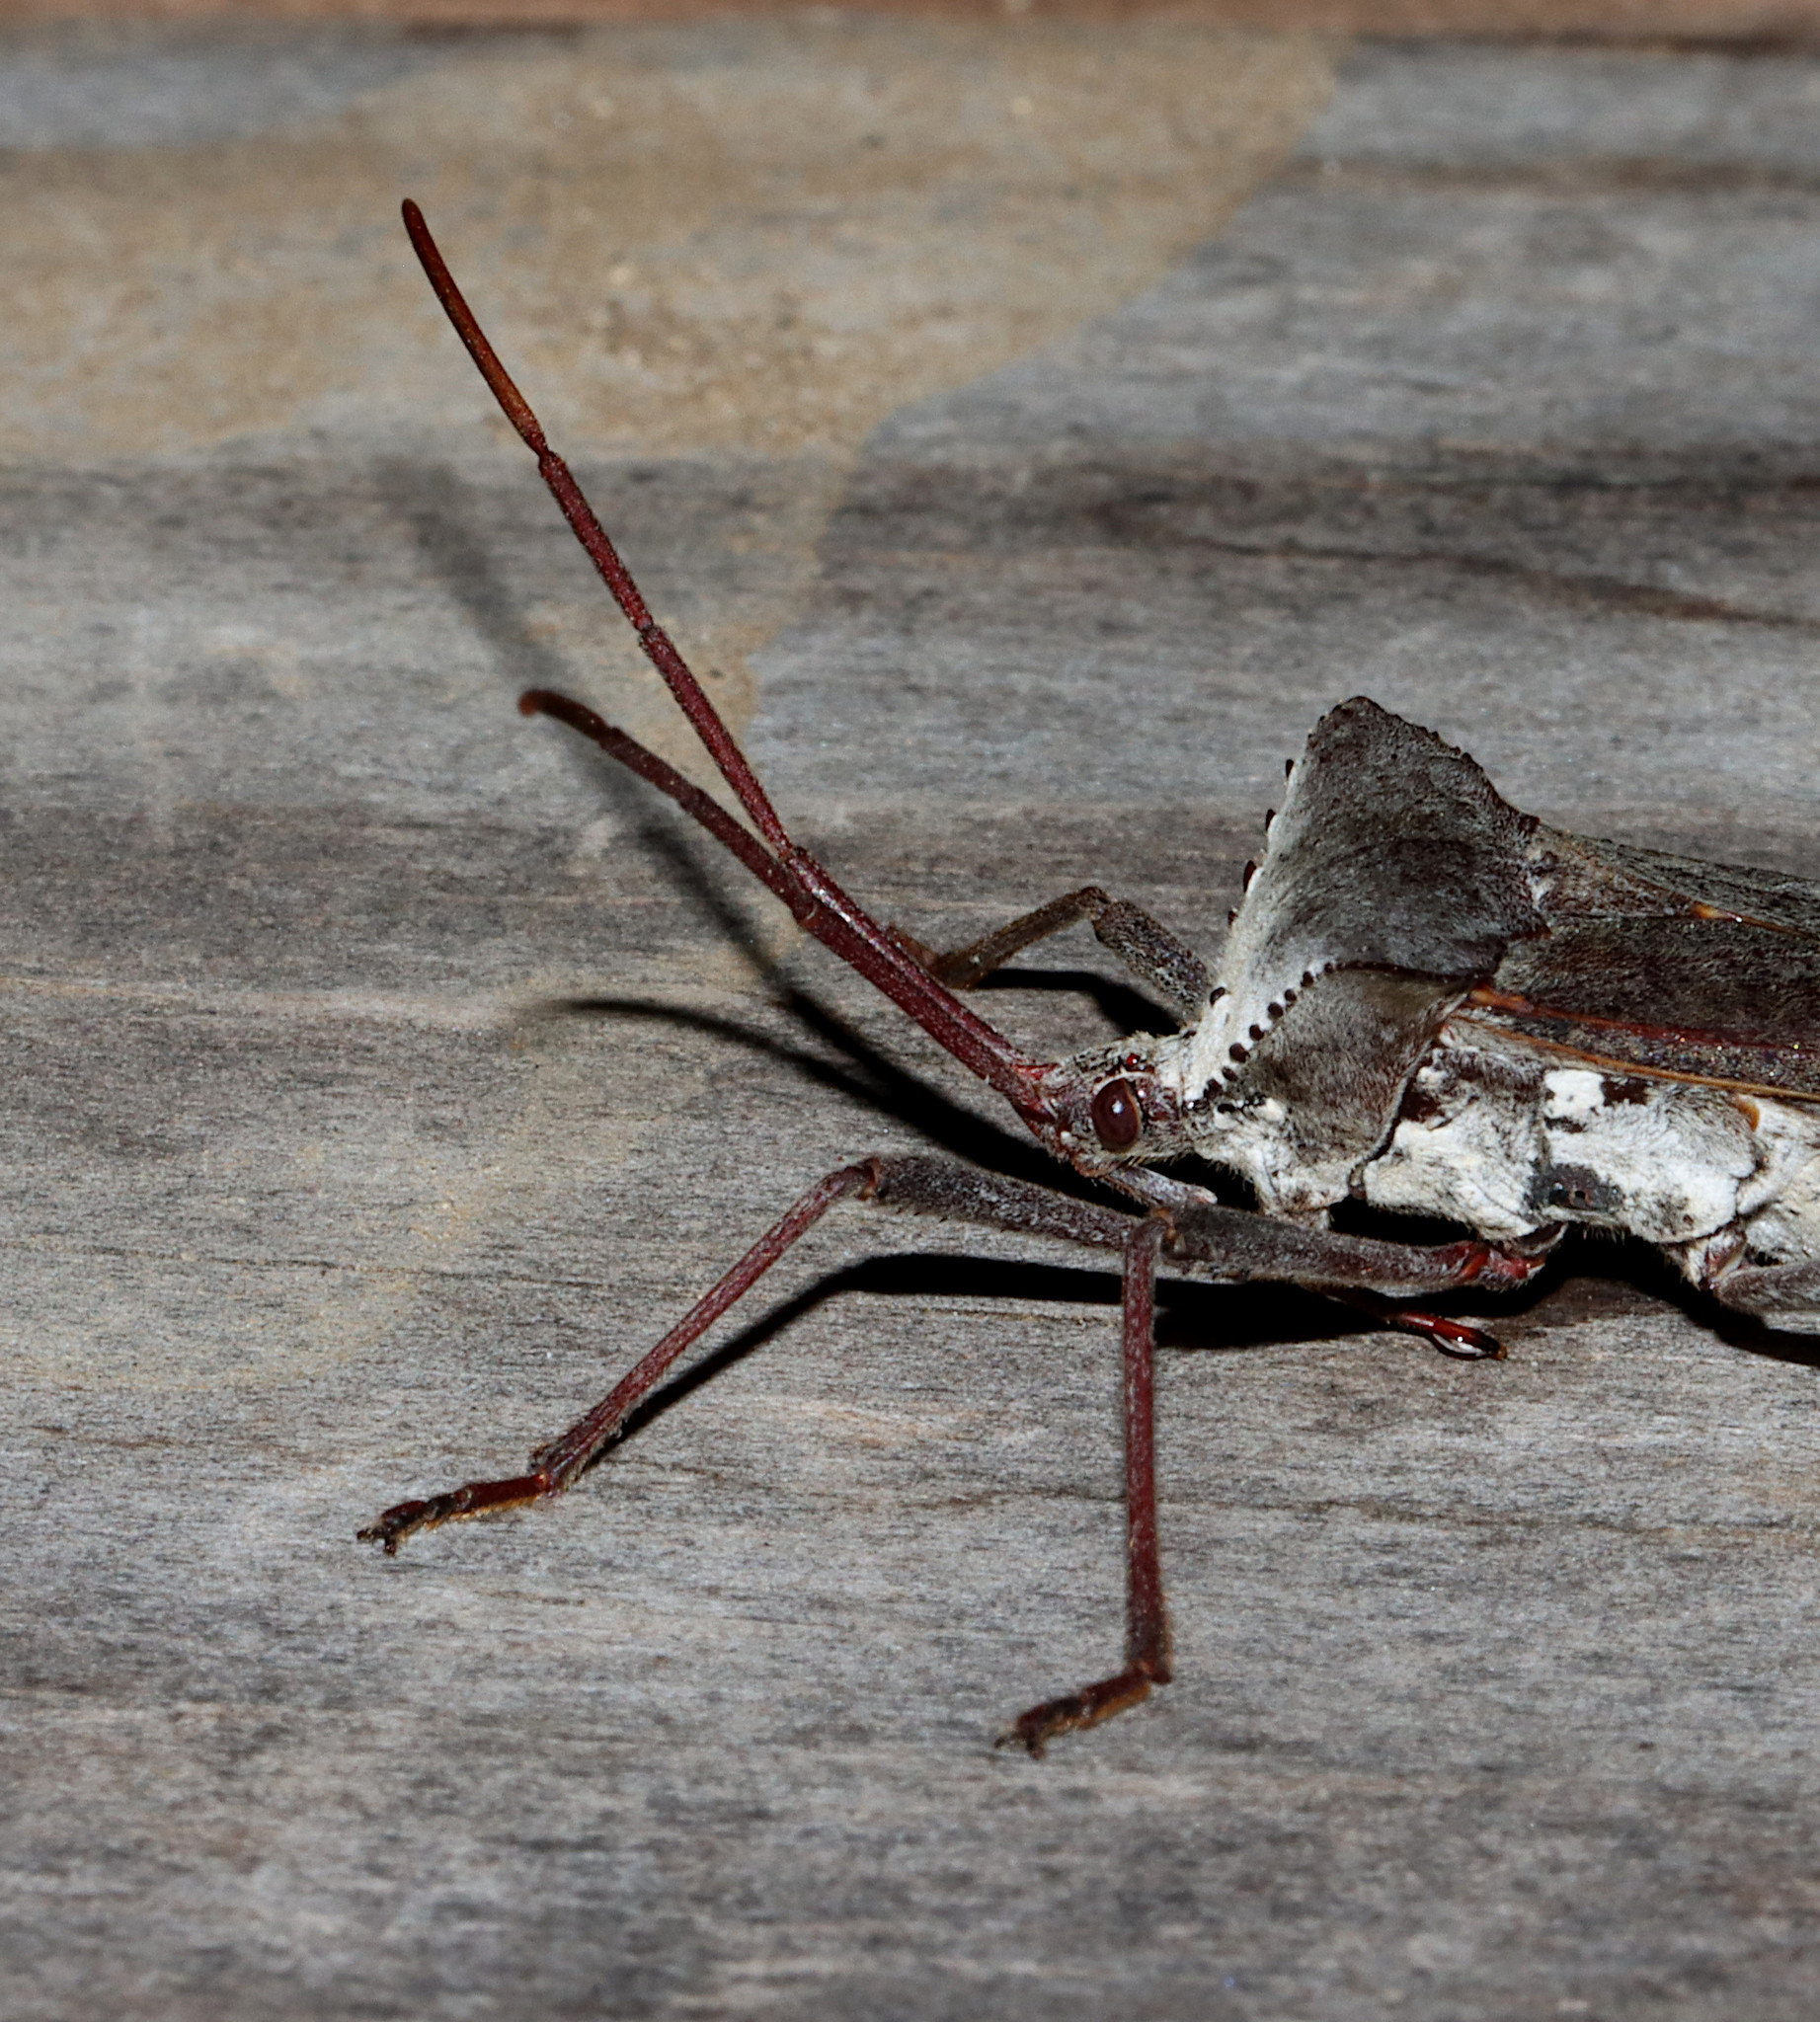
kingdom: Animalia
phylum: Arthropoda
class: Insecta
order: Hemiptera
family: Coreidae
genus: Acanthocephala
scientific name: Acanthocephala declivis
